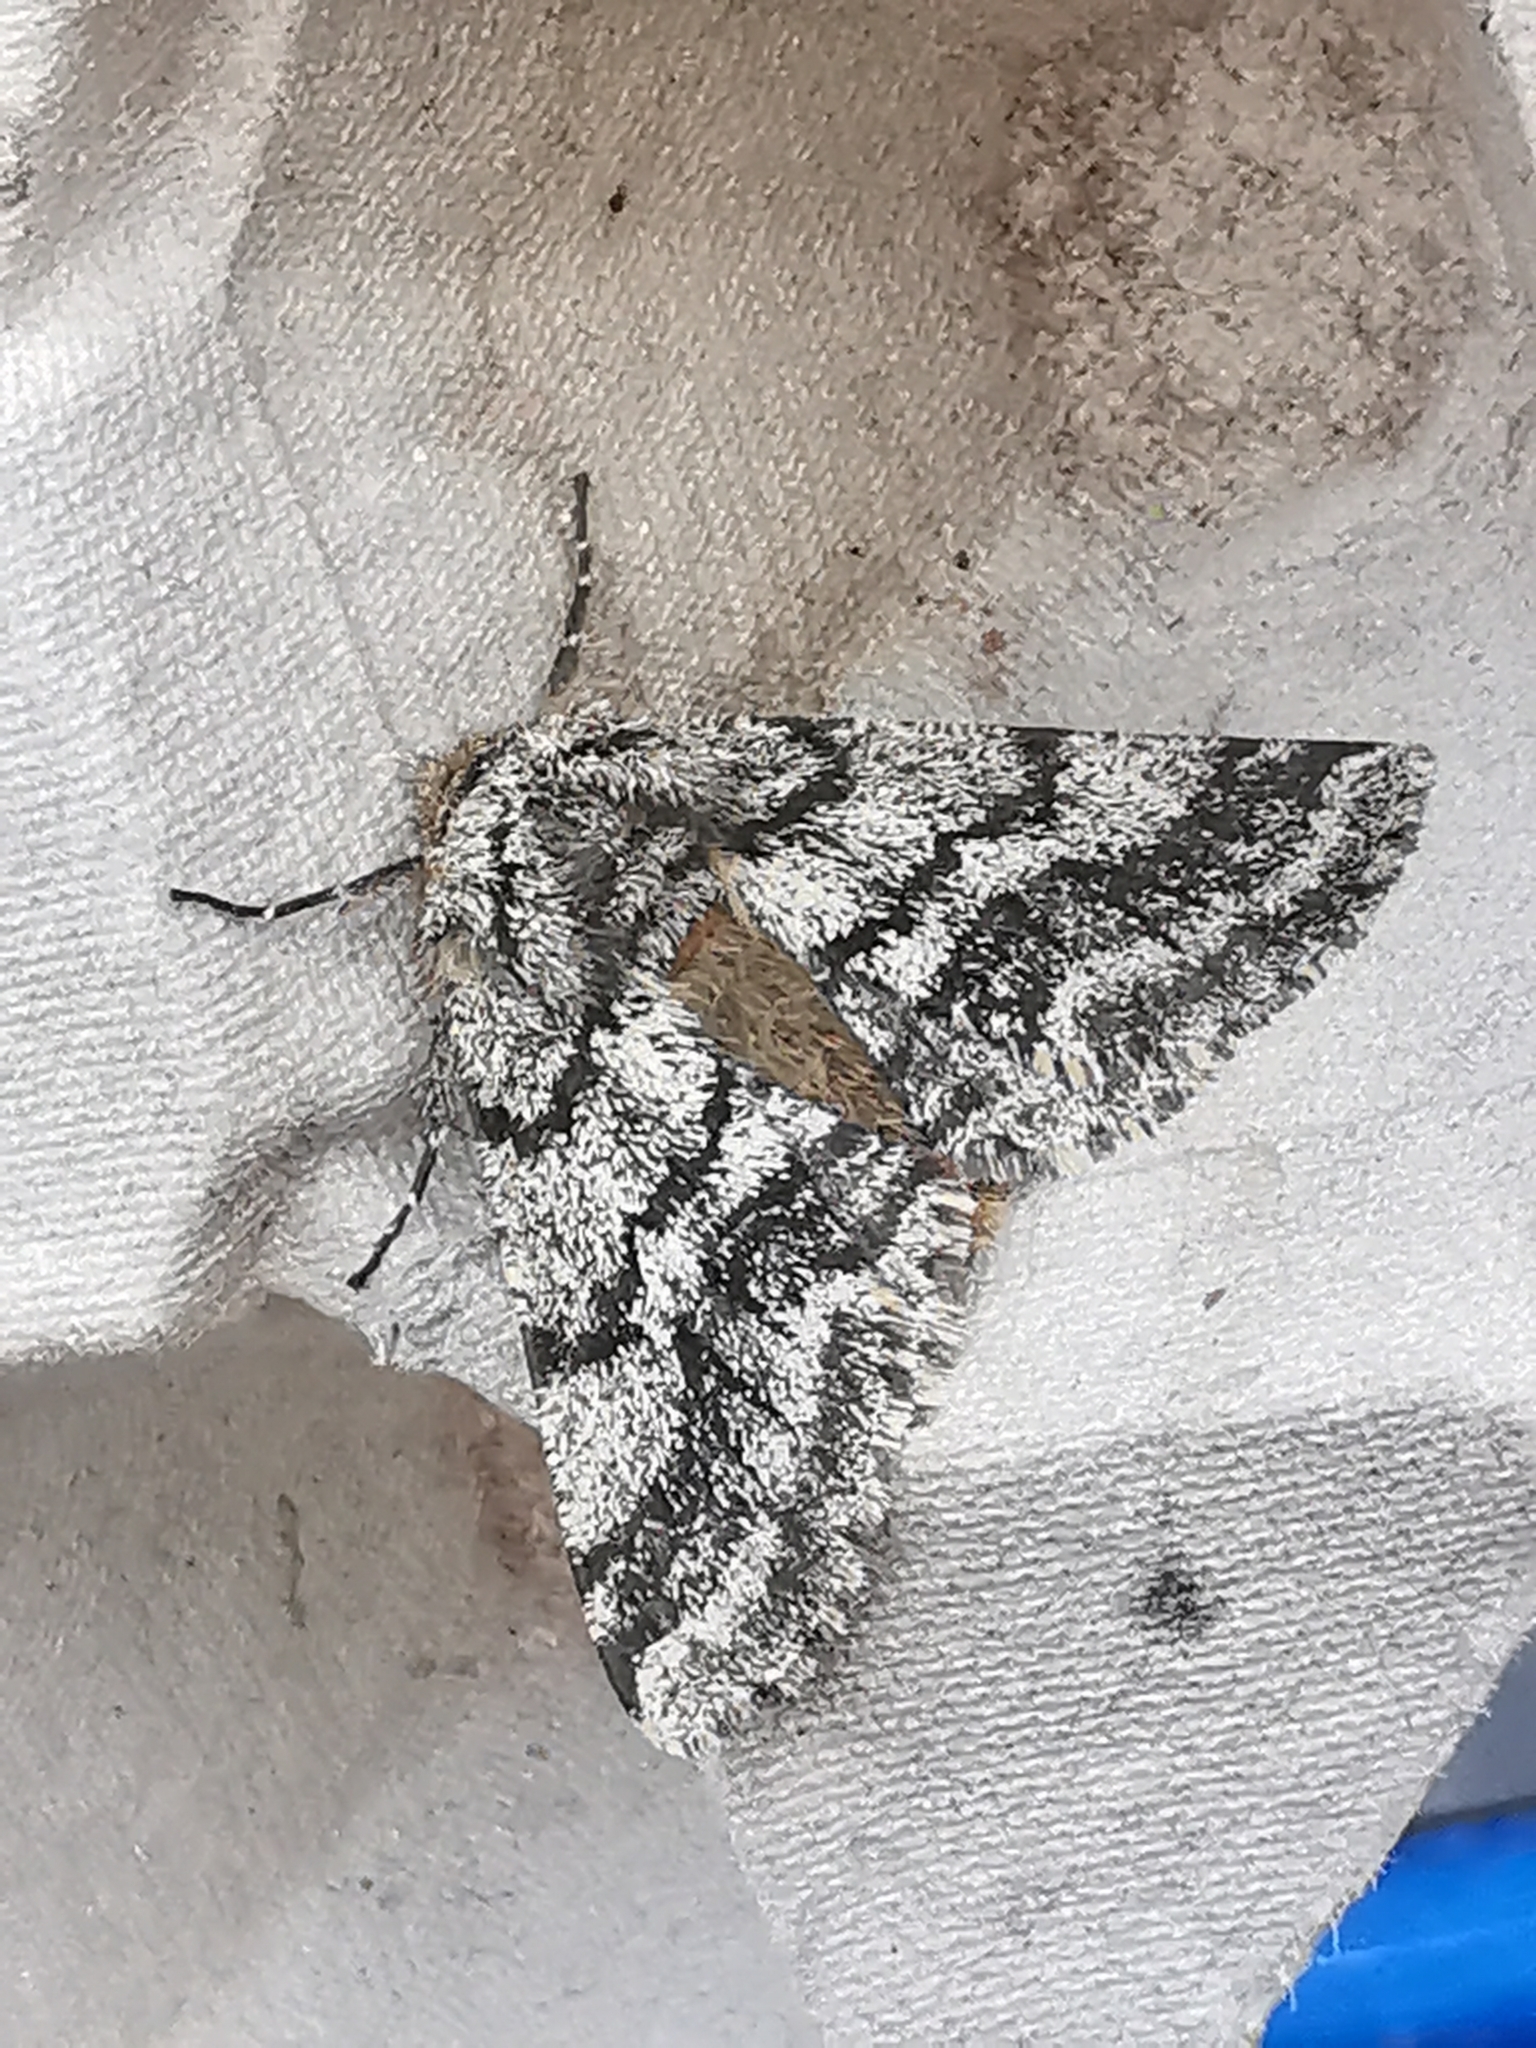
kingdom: Animalia
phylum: Arthropoda
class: Insecta
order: Lepidoptera
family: Geometridae
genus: Lycia
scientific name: Lycia hirtaria
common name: Brindled beauty
